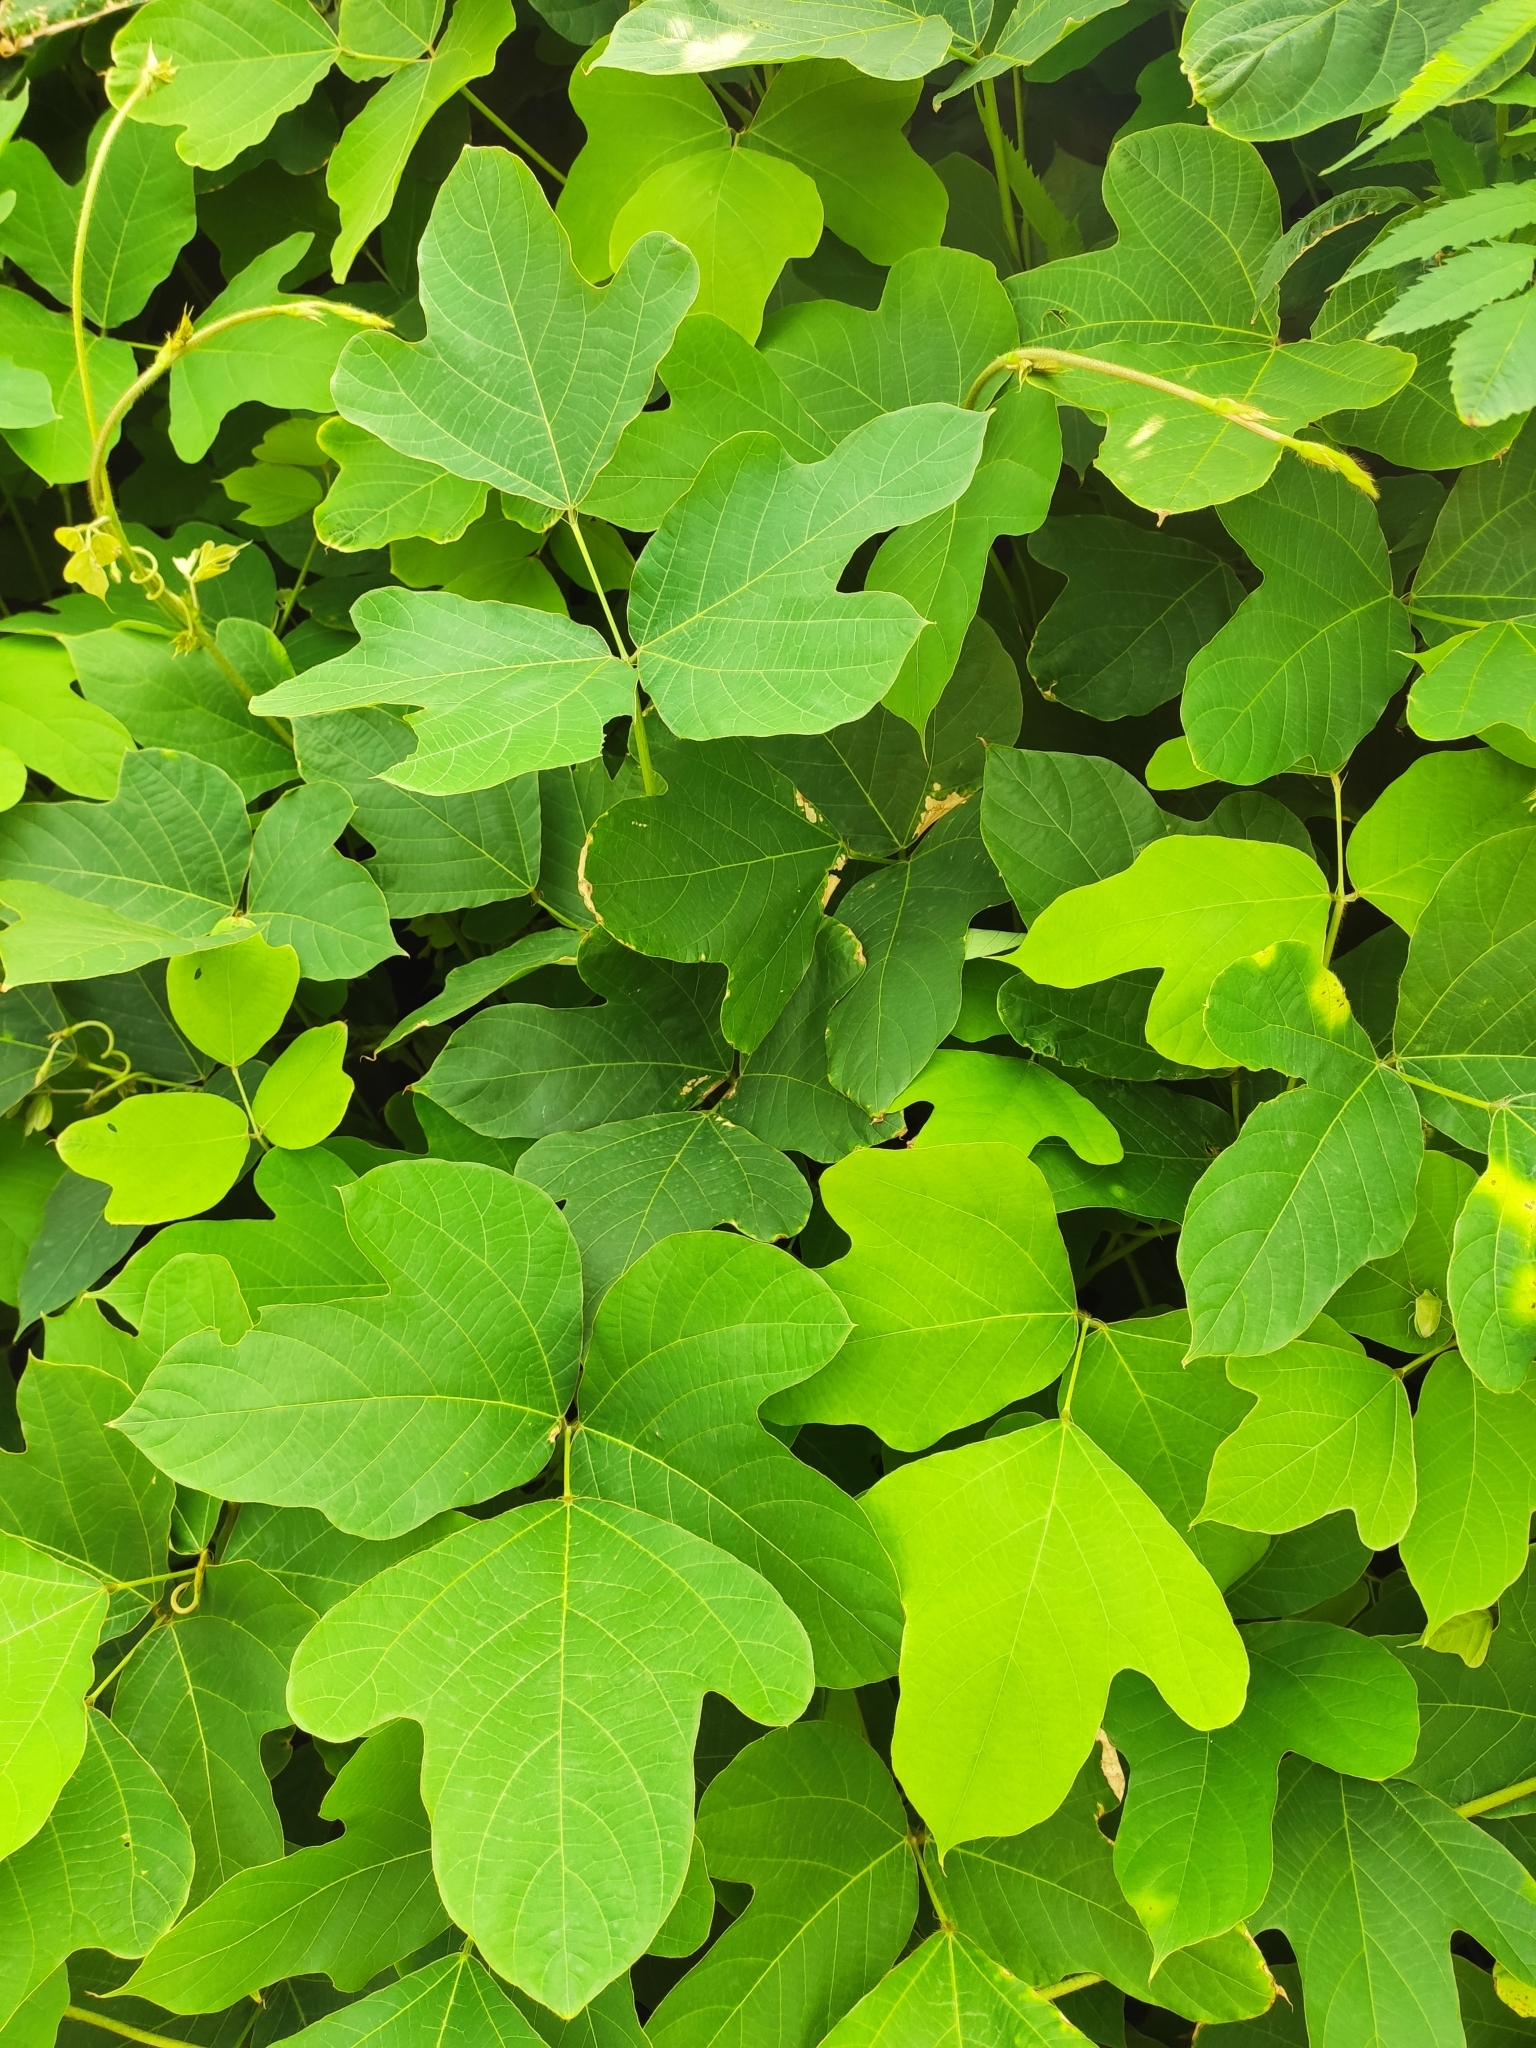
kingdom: Plantae
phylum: Tracheophyta
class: Magnoliopsida
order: Fabales
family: Fabaceae
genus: Pueraria
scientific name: Pueraria montana
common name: Kudzu
